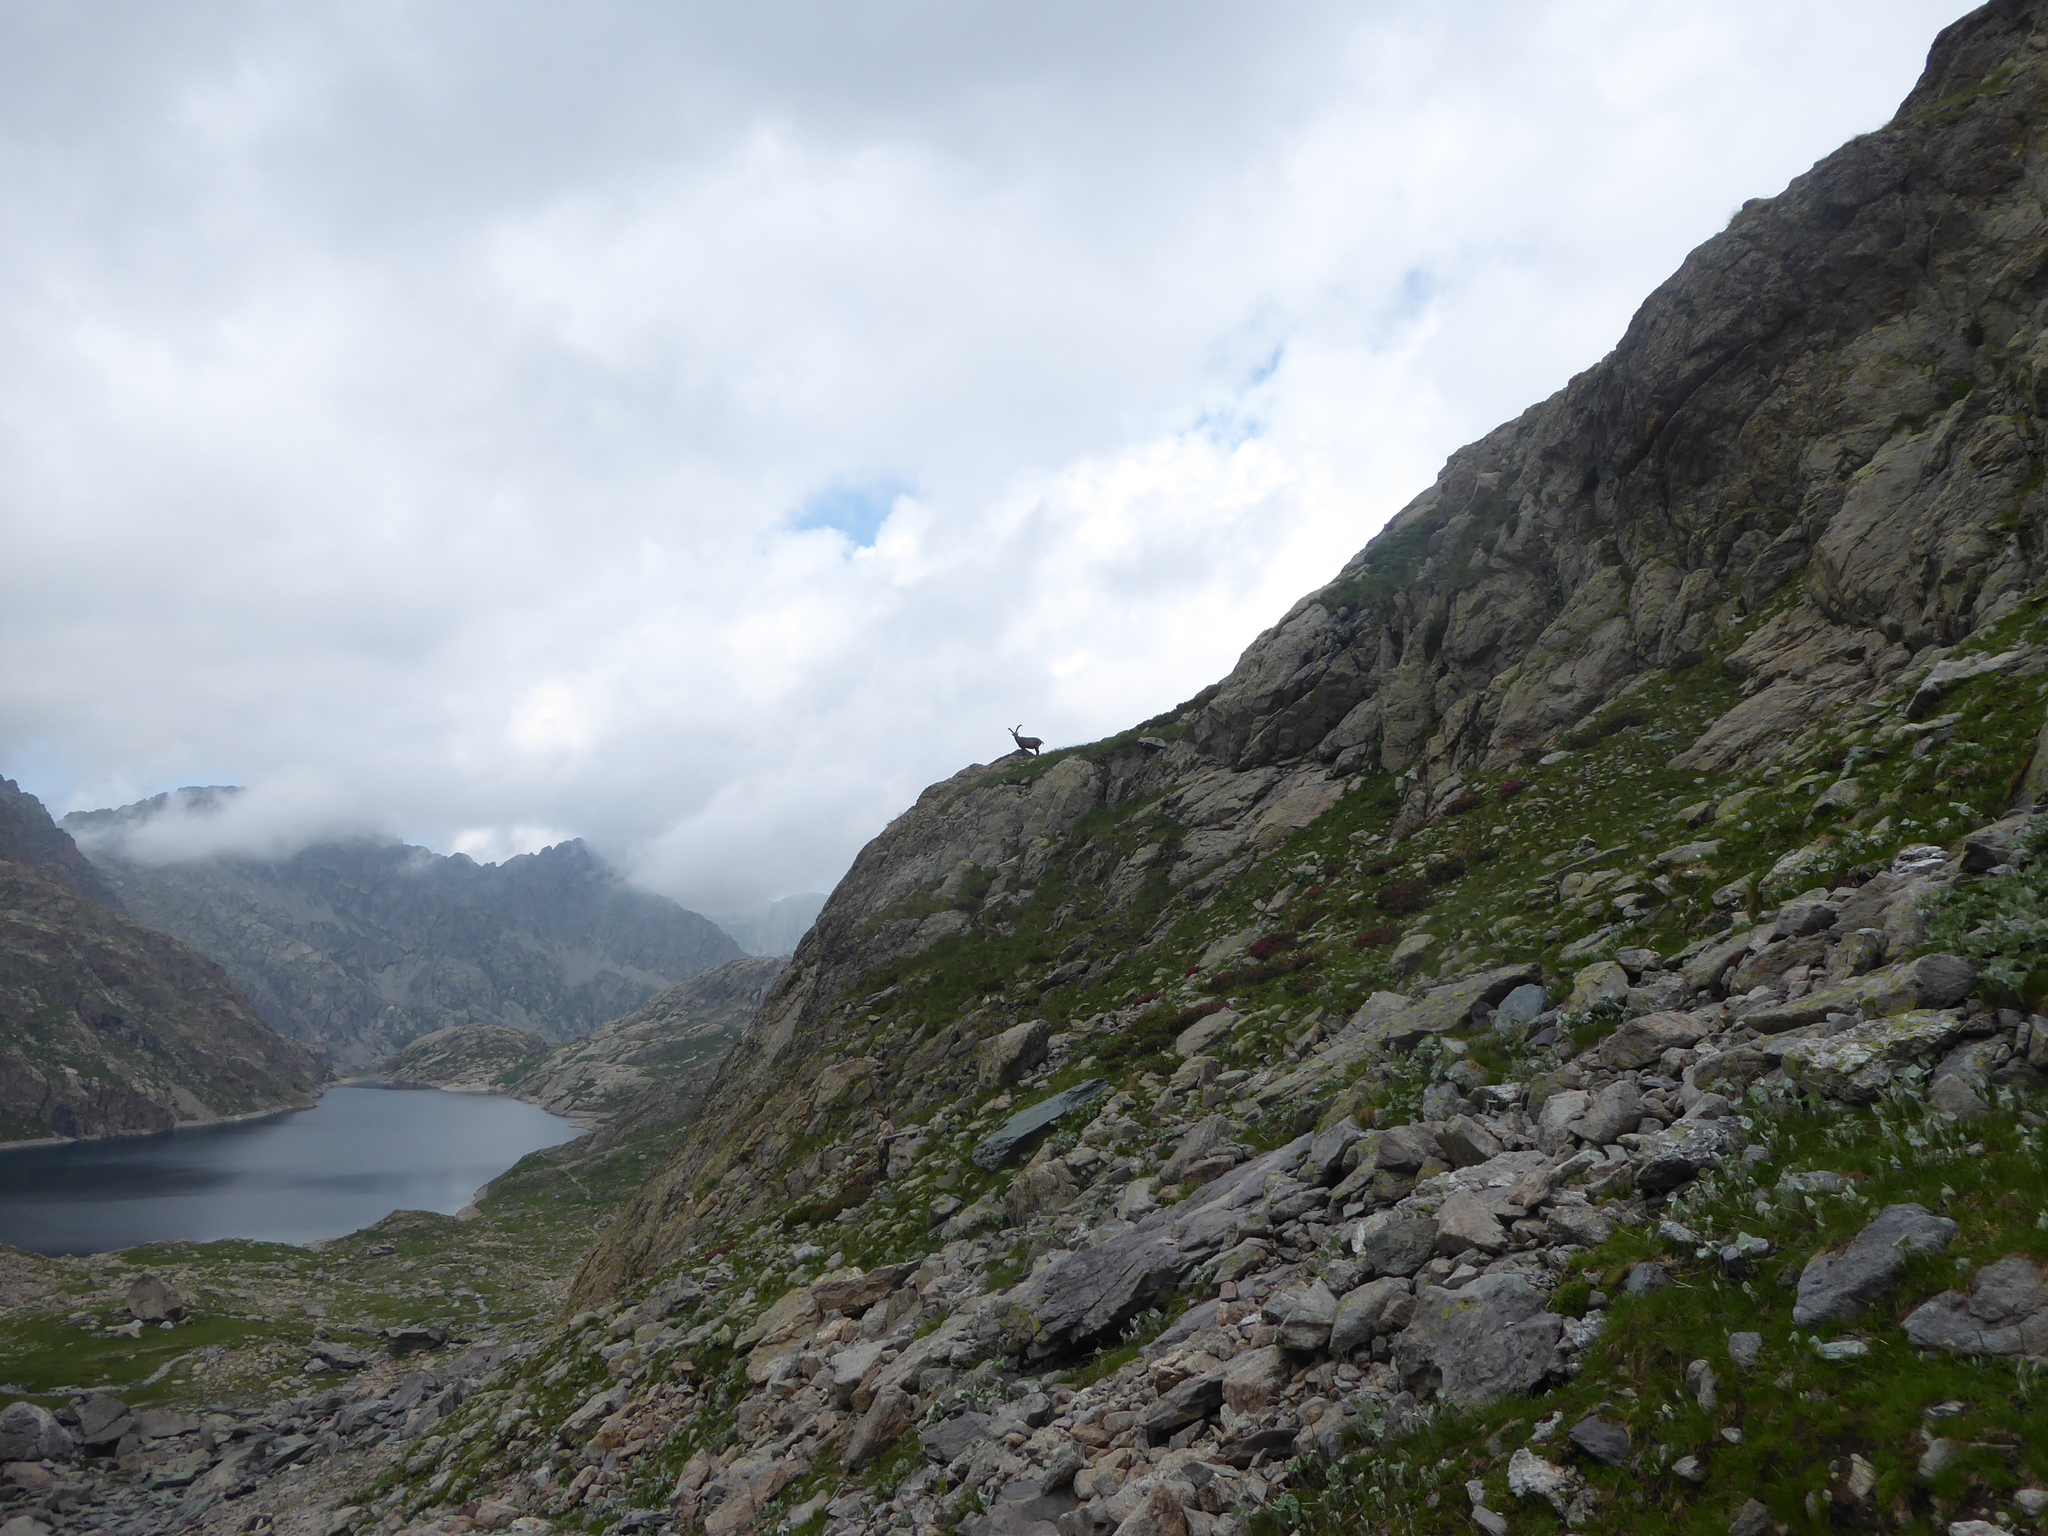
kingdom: Animalia
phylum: Chordata
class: Mammalia
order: Artiodactyla
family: Bovidae
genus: Capra
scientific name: Capra ibex
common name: Alpine ibex
